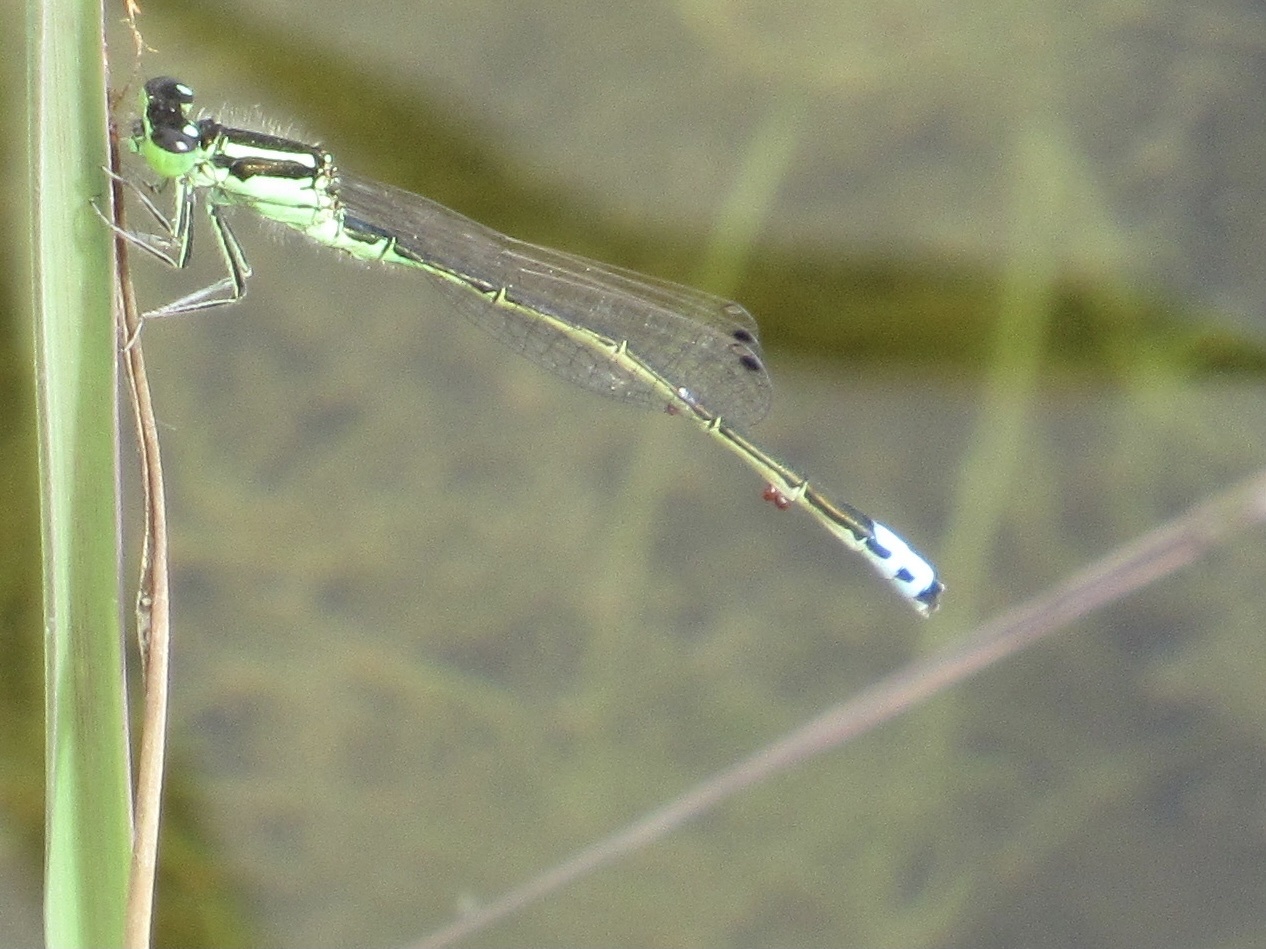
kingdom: Animalia
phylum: Arthropoda
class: Insecta
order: Odonata
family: Coenagrionidae
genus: Ischnura
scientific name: Ischnura verticalis
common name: Eastern forktail
